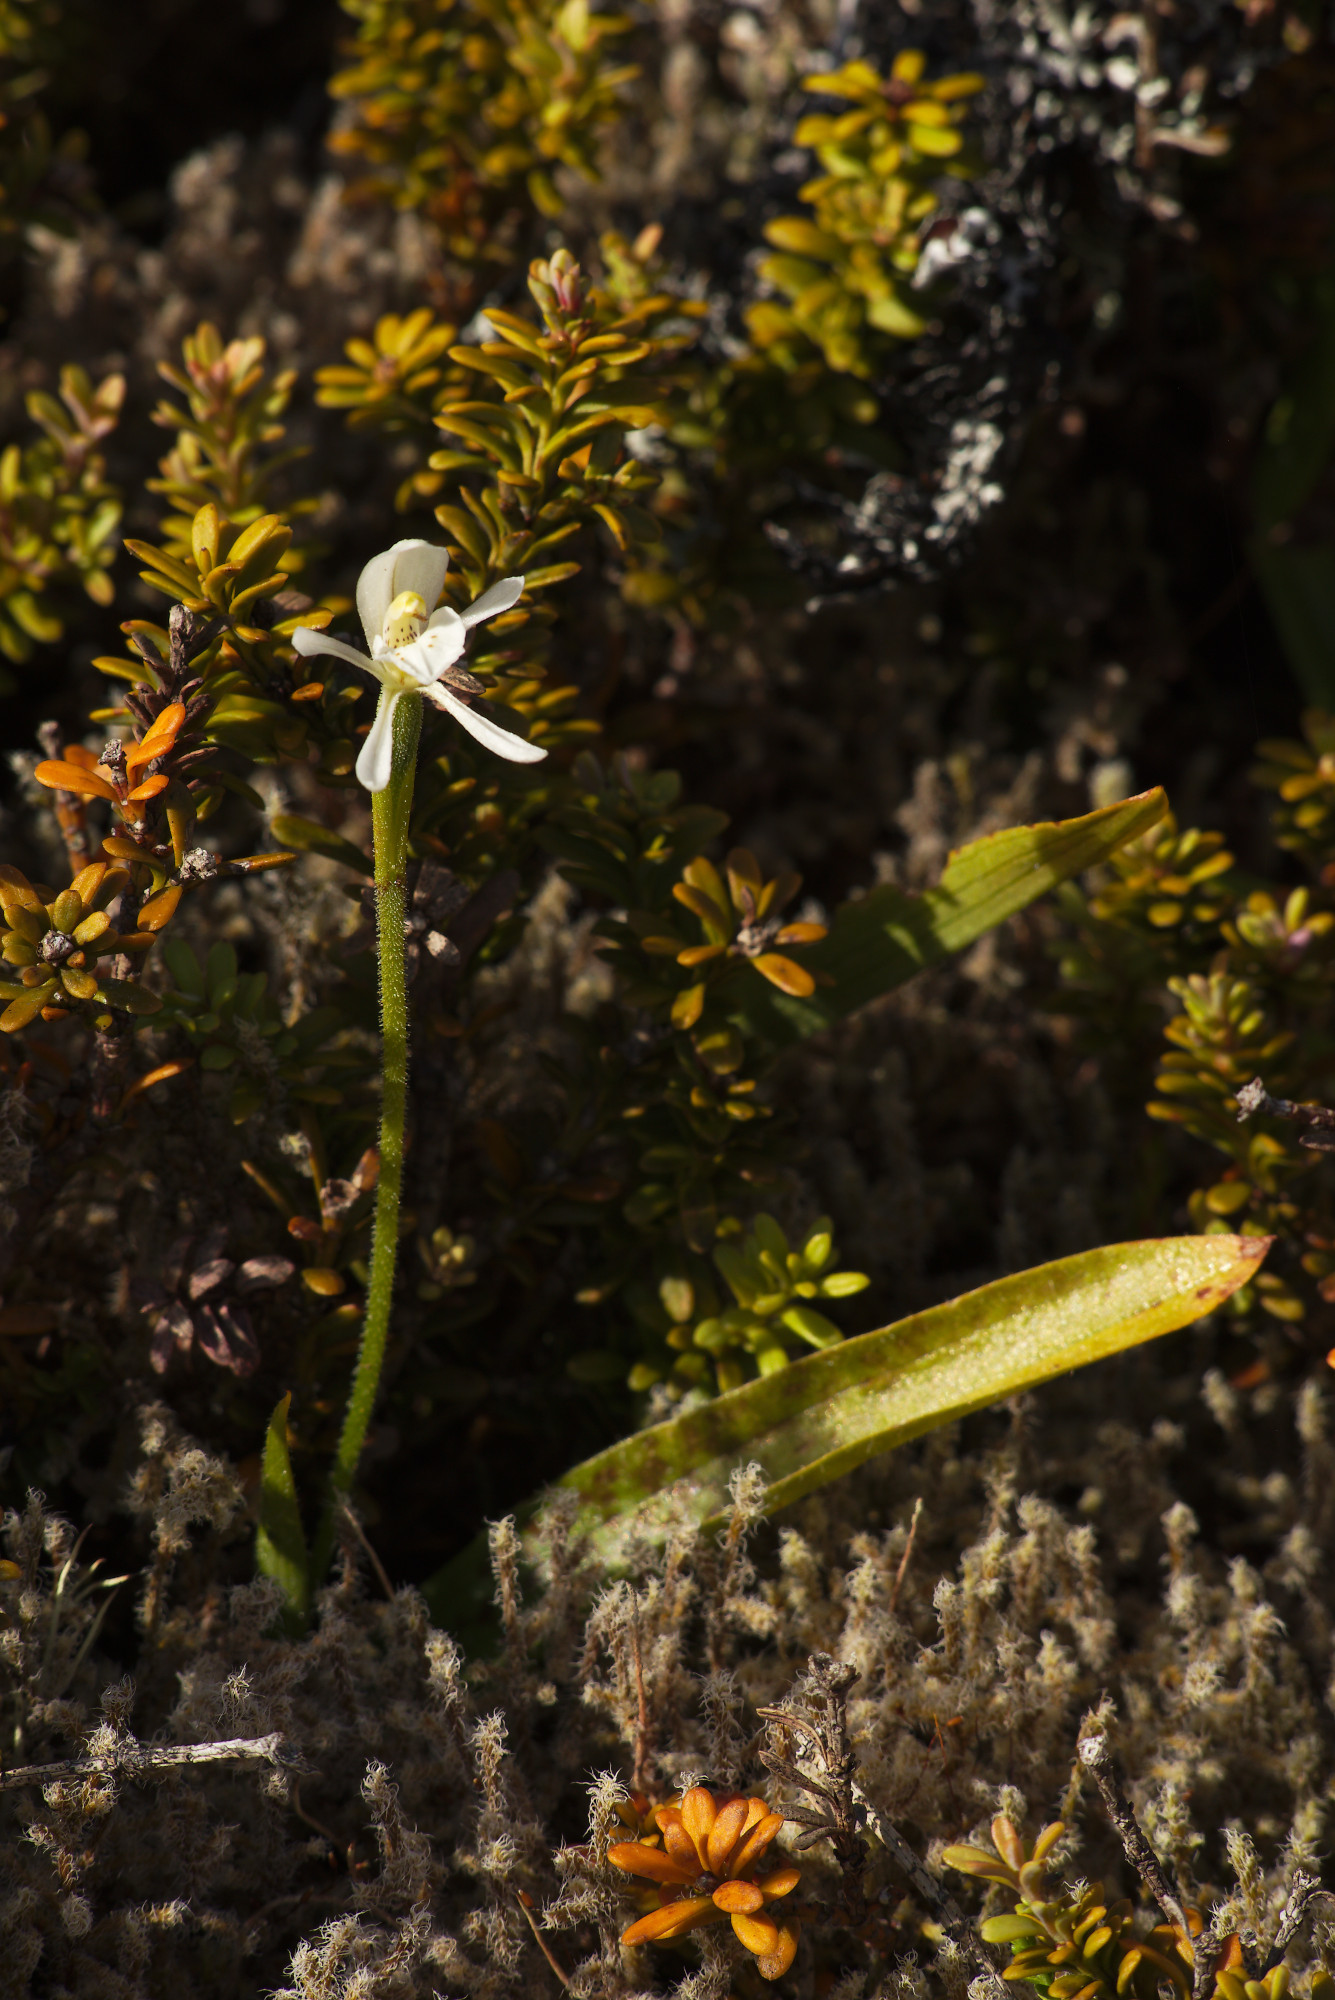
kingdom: Plantae
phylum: Tracheophyta
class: Liliopsida
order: Asparagales
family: Orchidaceae
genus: Aporostylis
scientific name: Aporostylis bifolia
